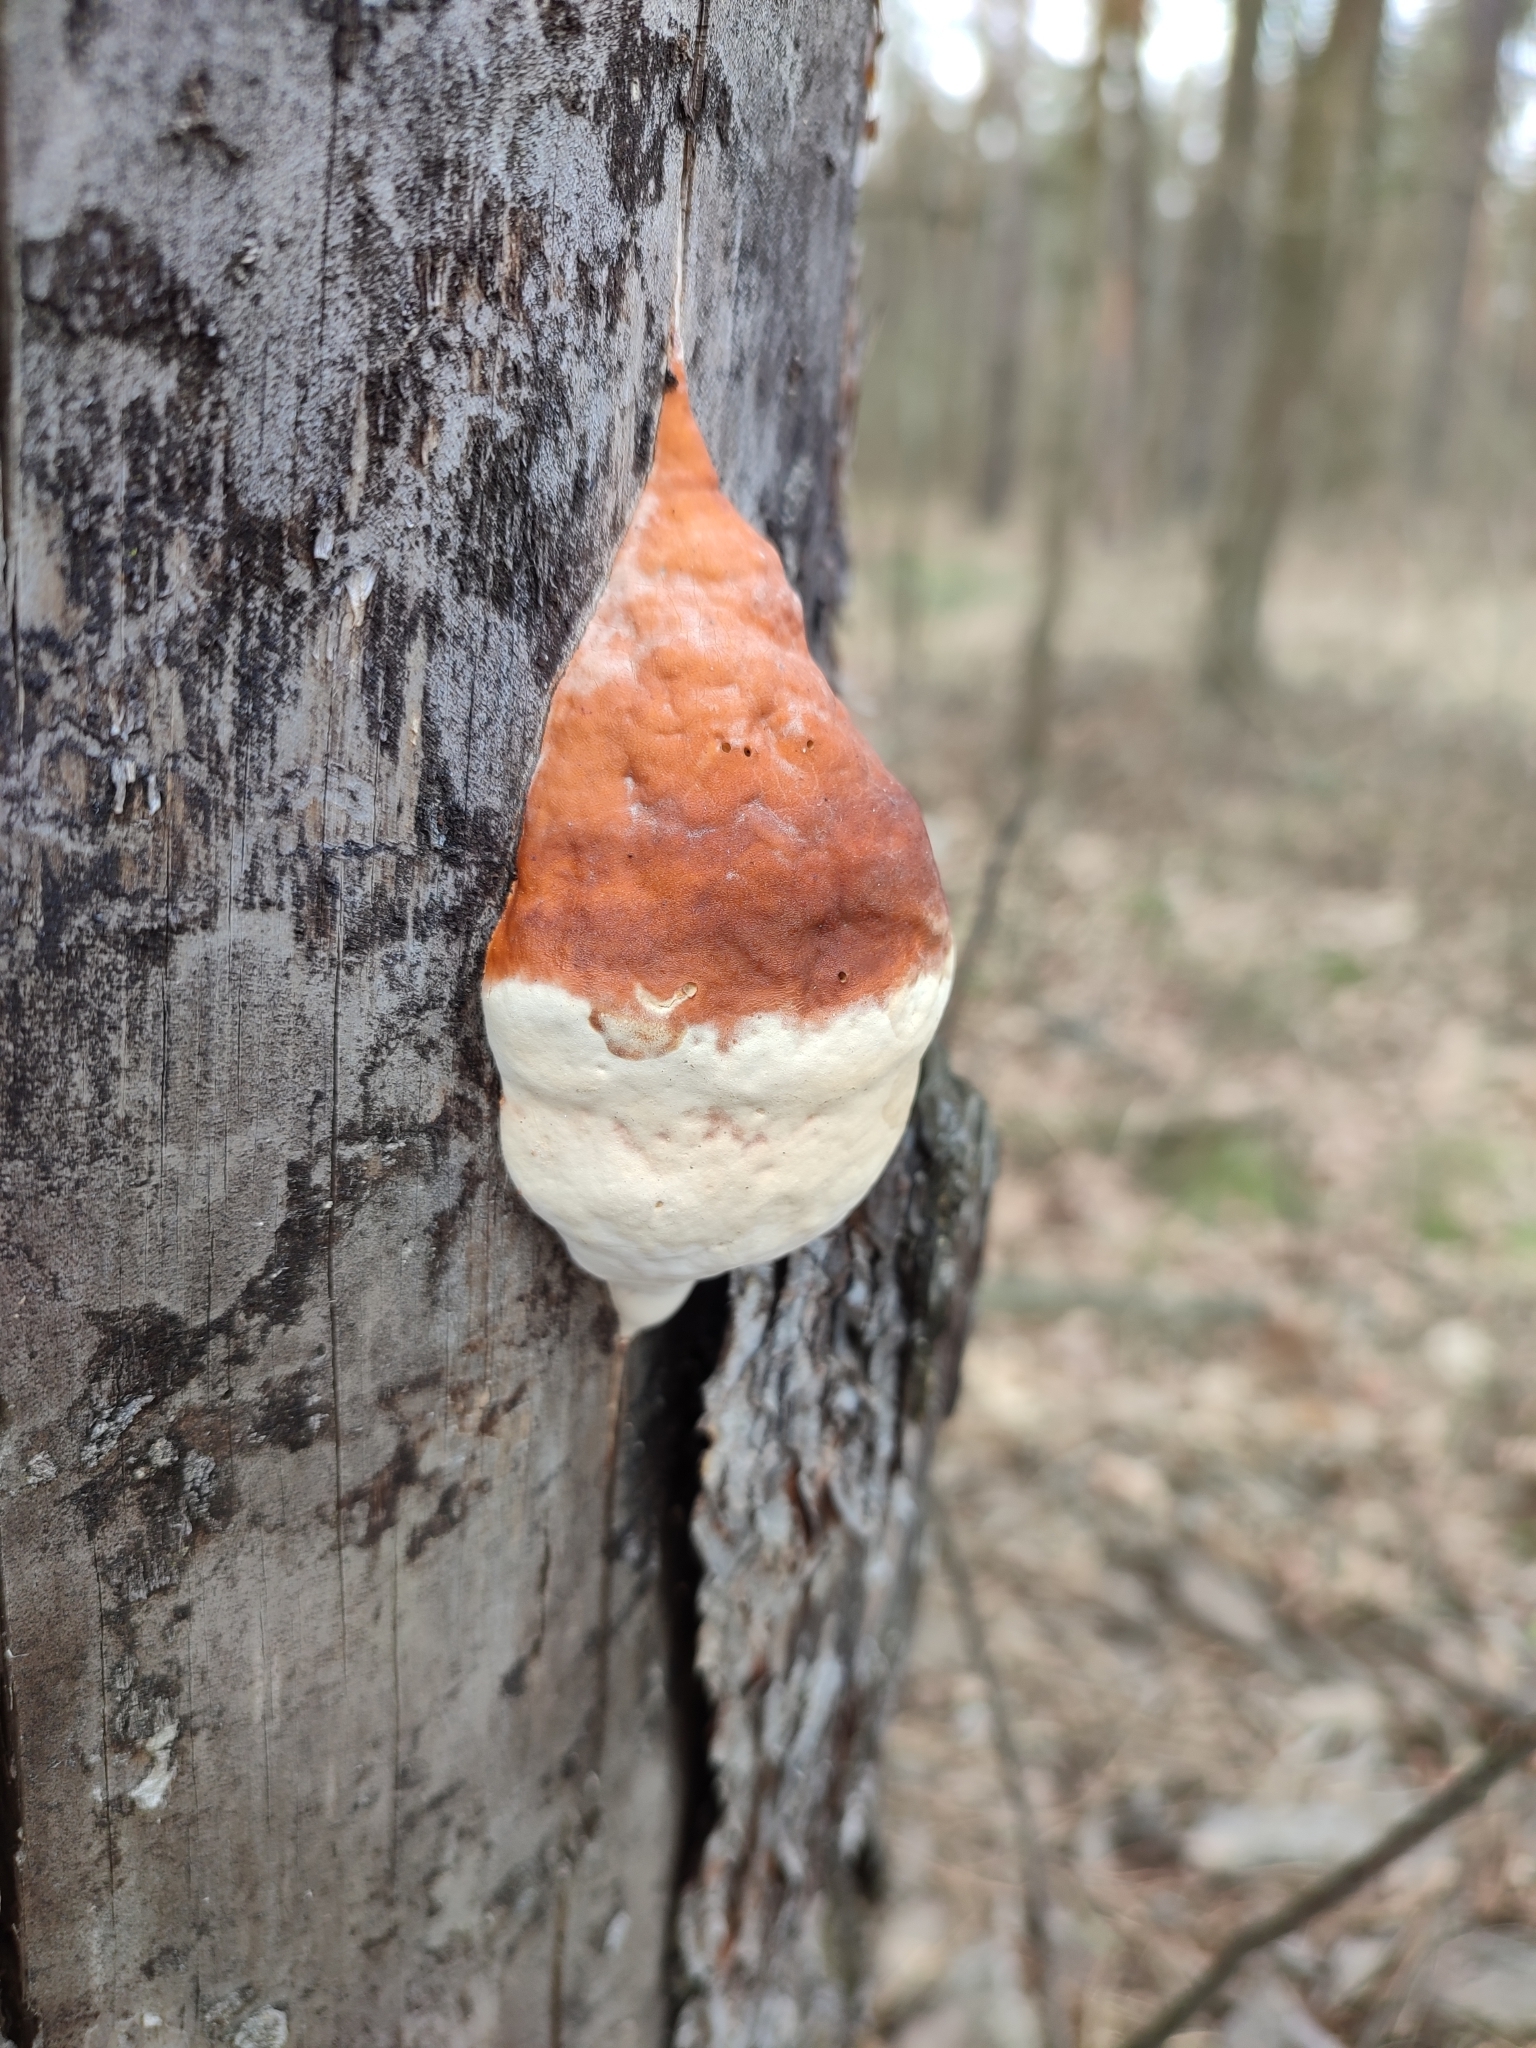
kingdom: Fungi
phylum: Basidiomycota
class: Agaricomycetes
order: Polyporales
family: Fomitopsidaceae
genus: Fomitopsis
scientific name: Fomitopsis pinicola
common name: Red-belted bracket
